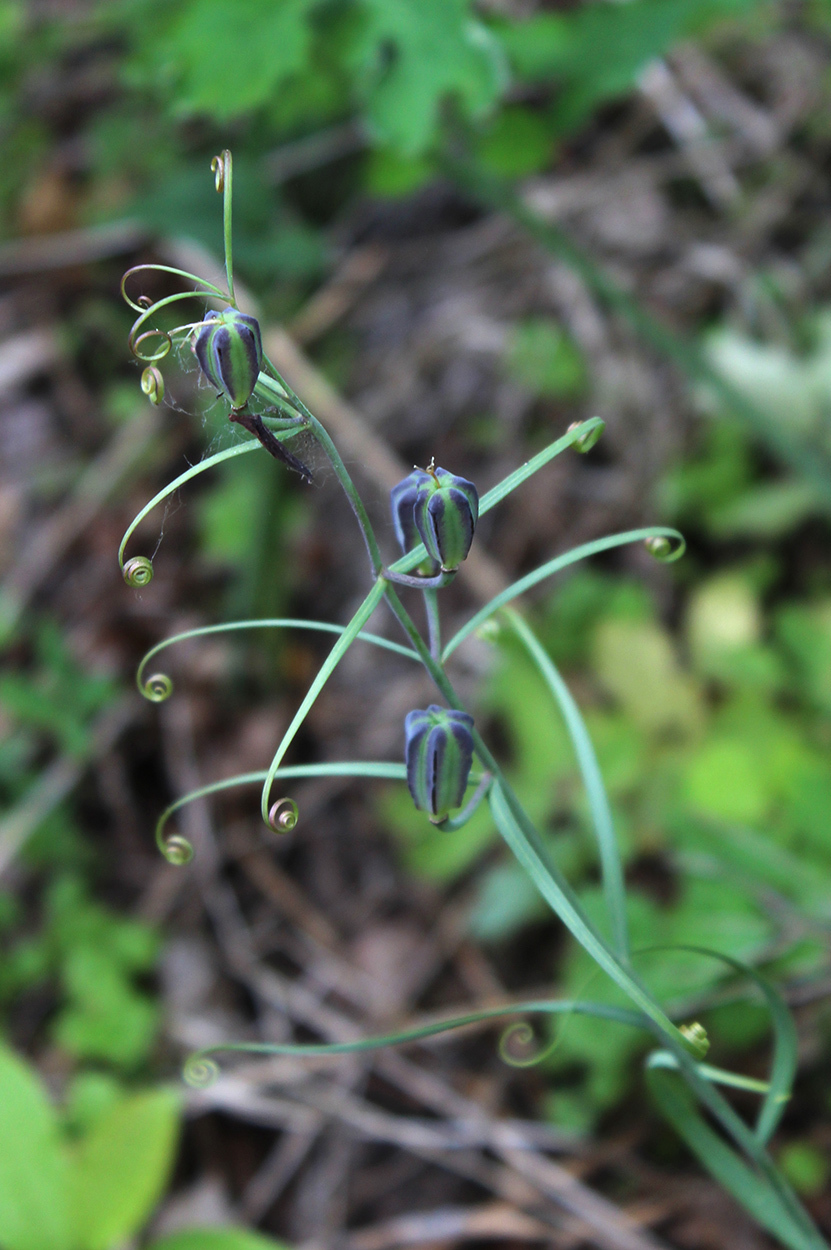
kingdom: Plantae
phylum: Tracheophyta
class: Liliopsida
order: Liliales
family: Liliaceae
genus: Fritillaria
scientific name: Fritillaria ruthenica
